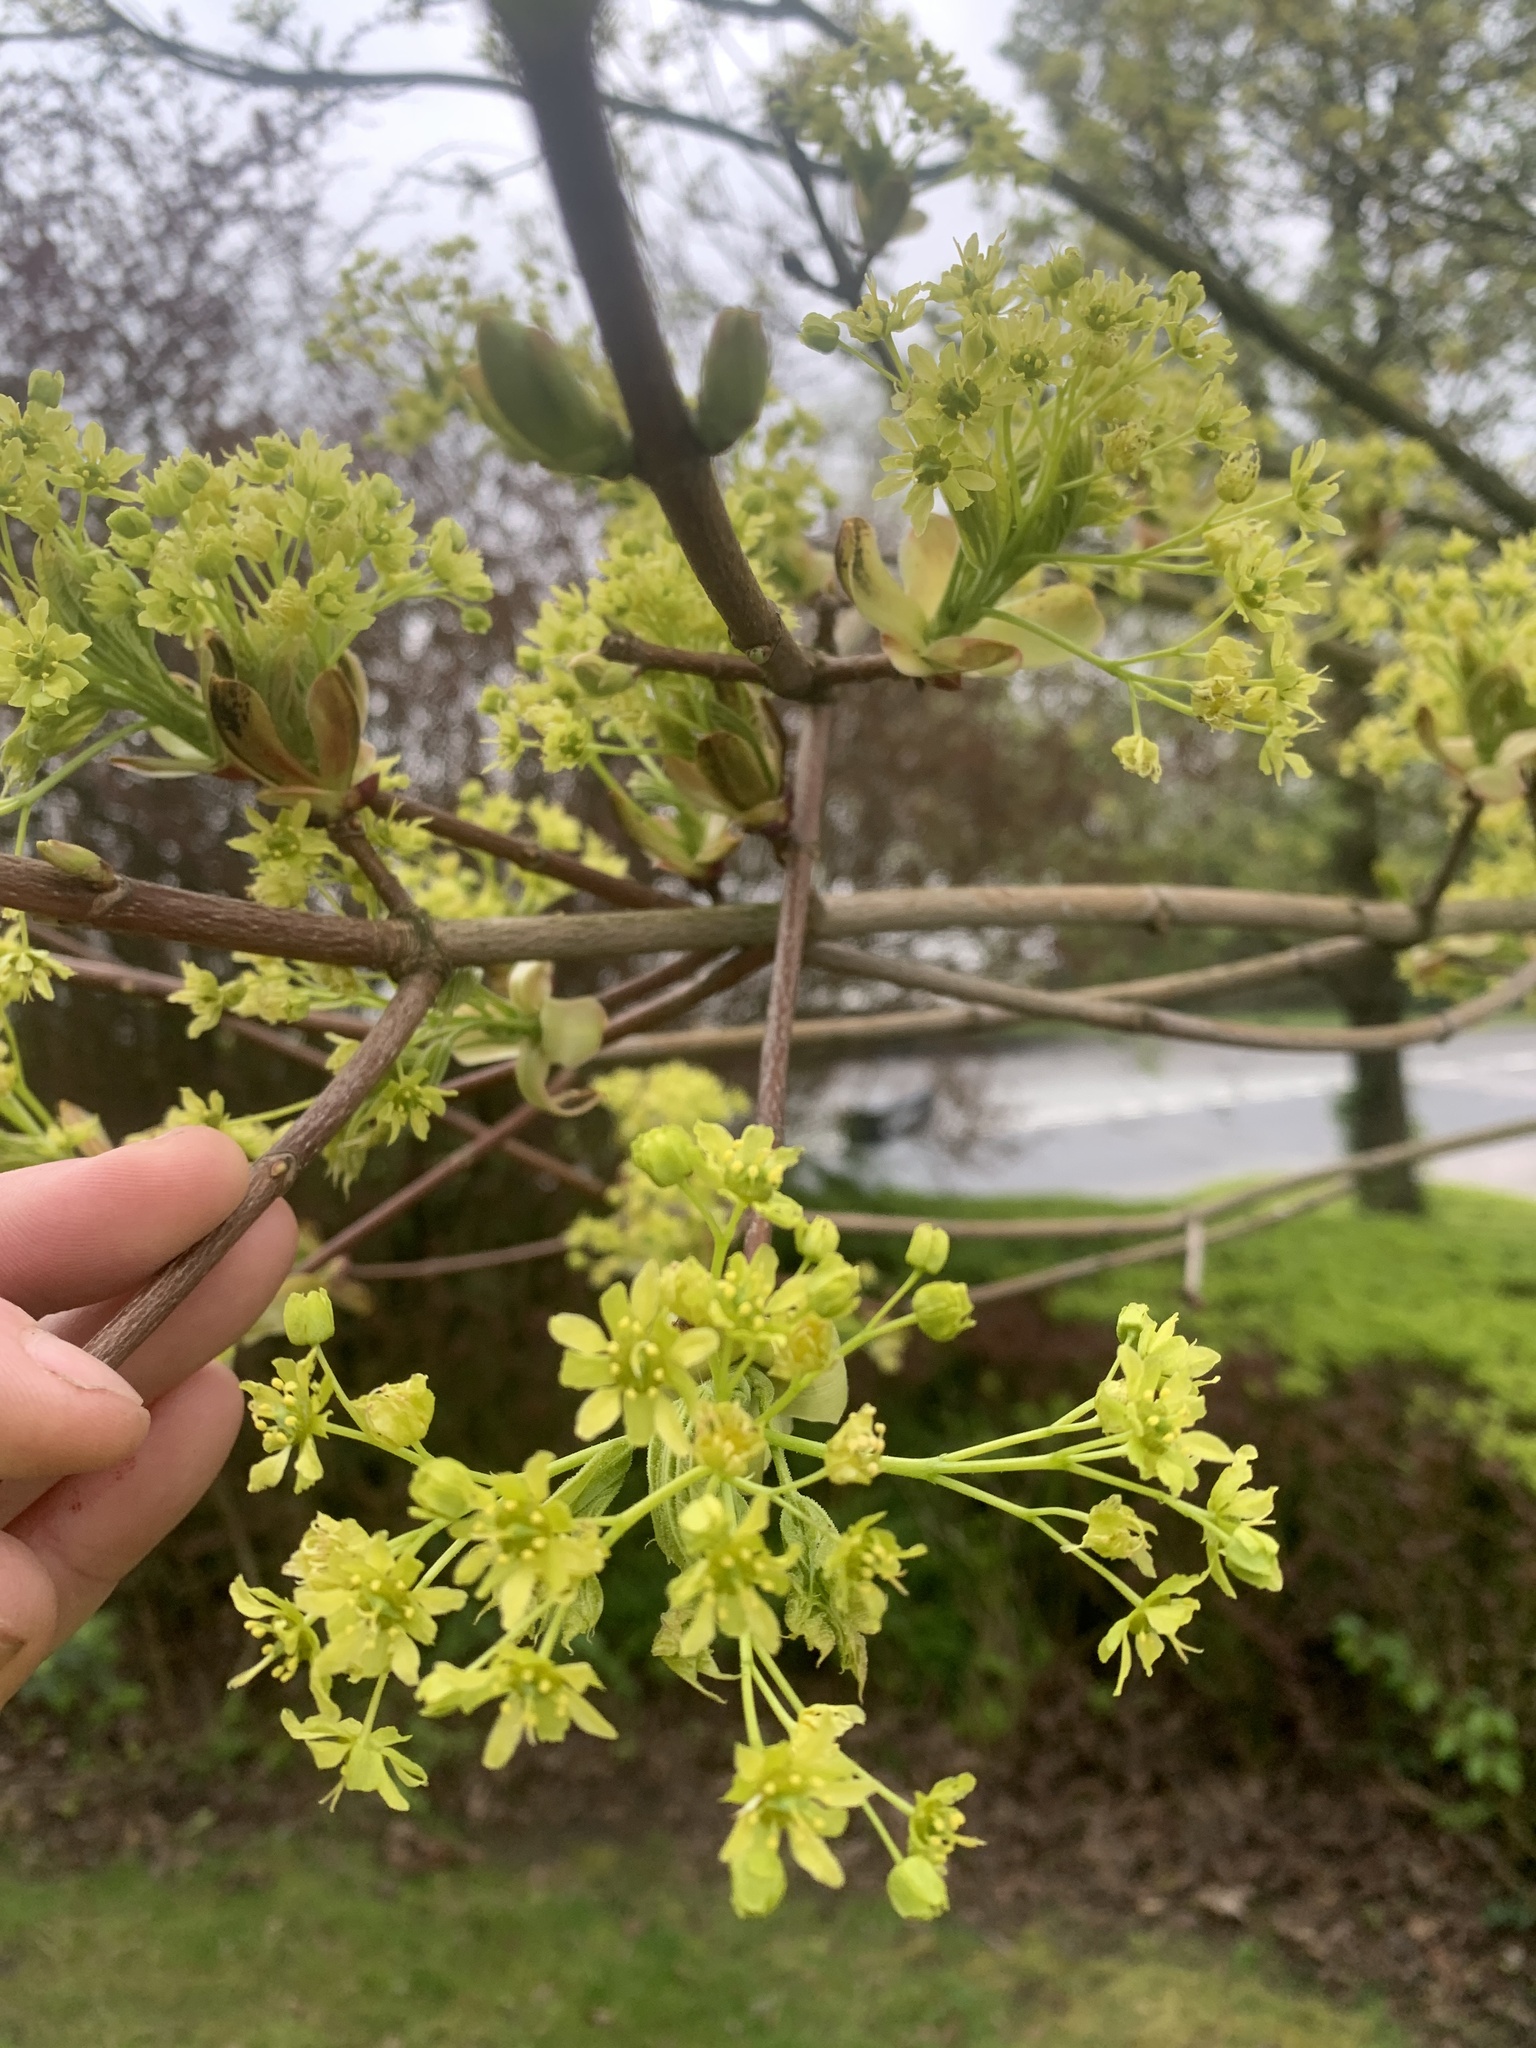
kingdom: Plantae
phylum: Tracheophyta
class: Magnoliopsida
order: Sapindales
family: Sapindaceae
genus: Acer
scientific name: Acer platanoides
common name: Norway maple
